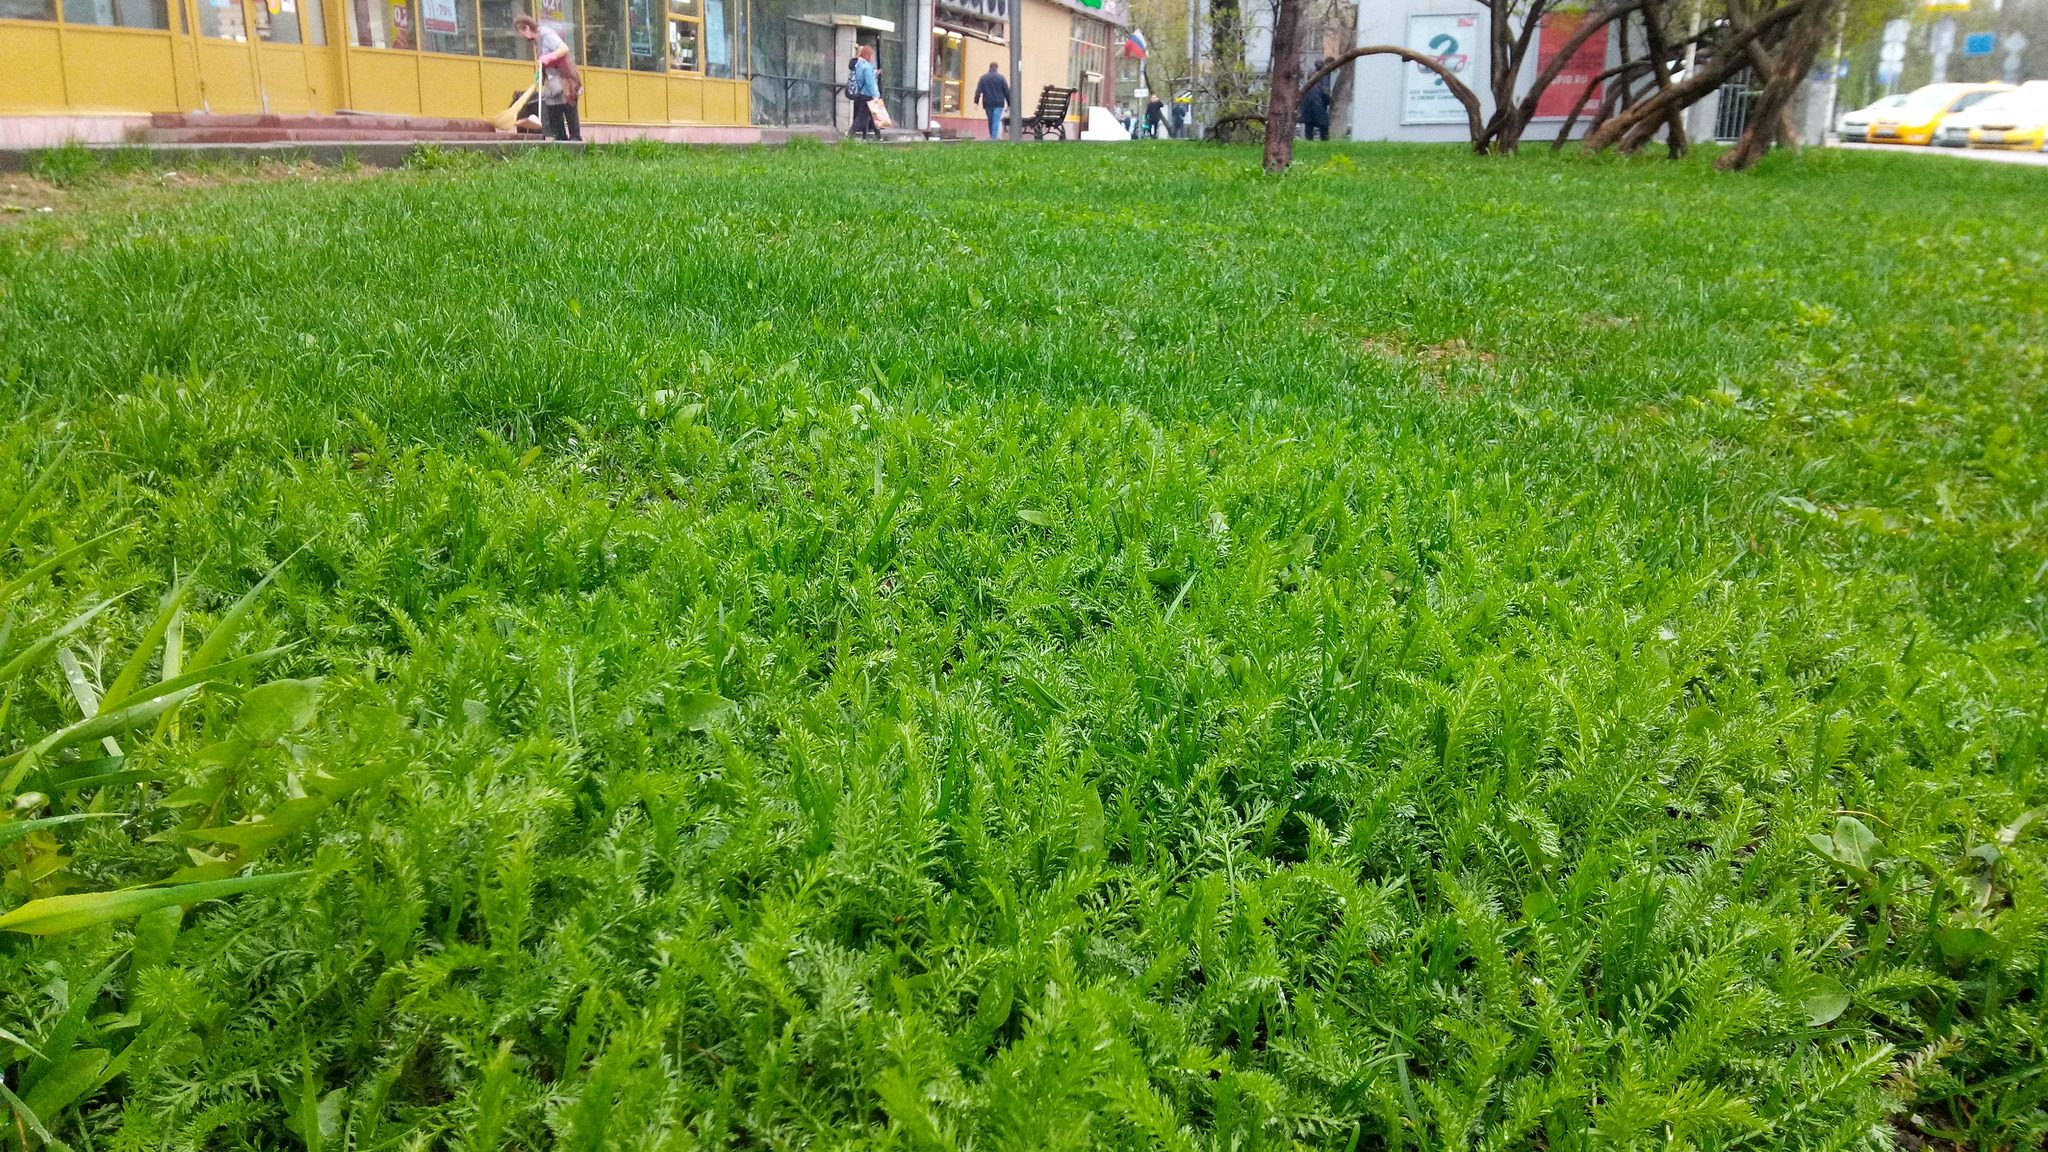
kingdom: Plantae
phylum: Tracheophyta
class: Magnoliopsida
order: Asterales
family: Asteraceae
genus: Achillea
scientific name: Achillea millefolium
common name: Yarrow
